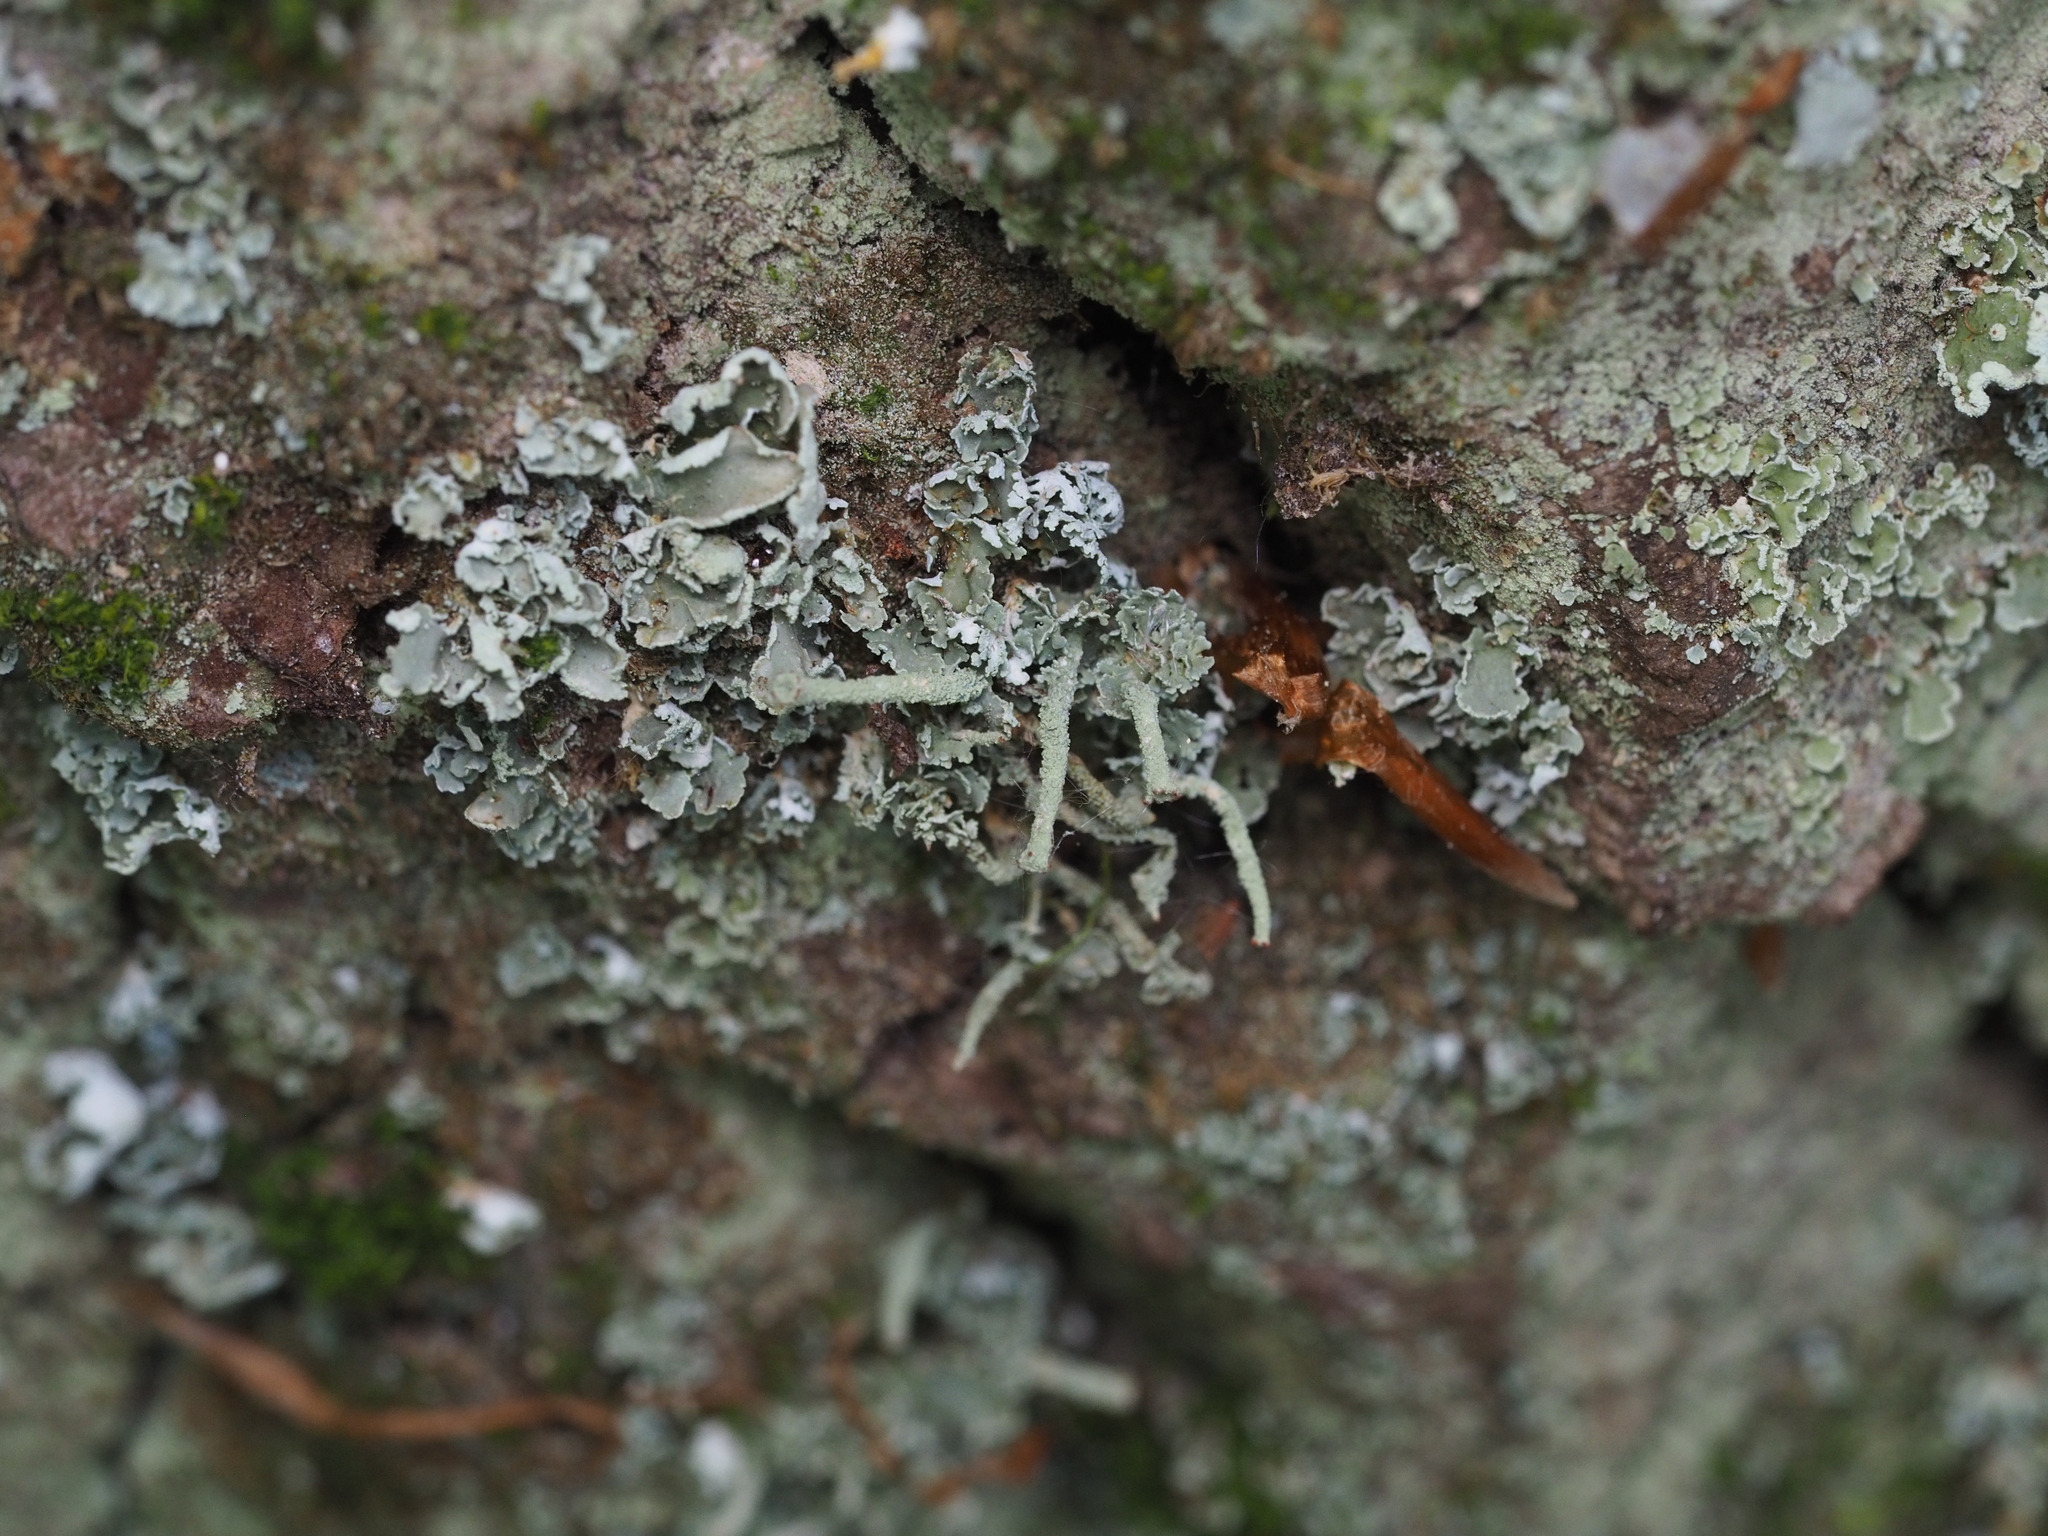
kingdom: Fungi
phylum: Ascomycota
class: Lecanoromycetes
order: Lecanorales
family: Cladoniaceae
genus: Cladonia
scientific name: Cladonia digitata
